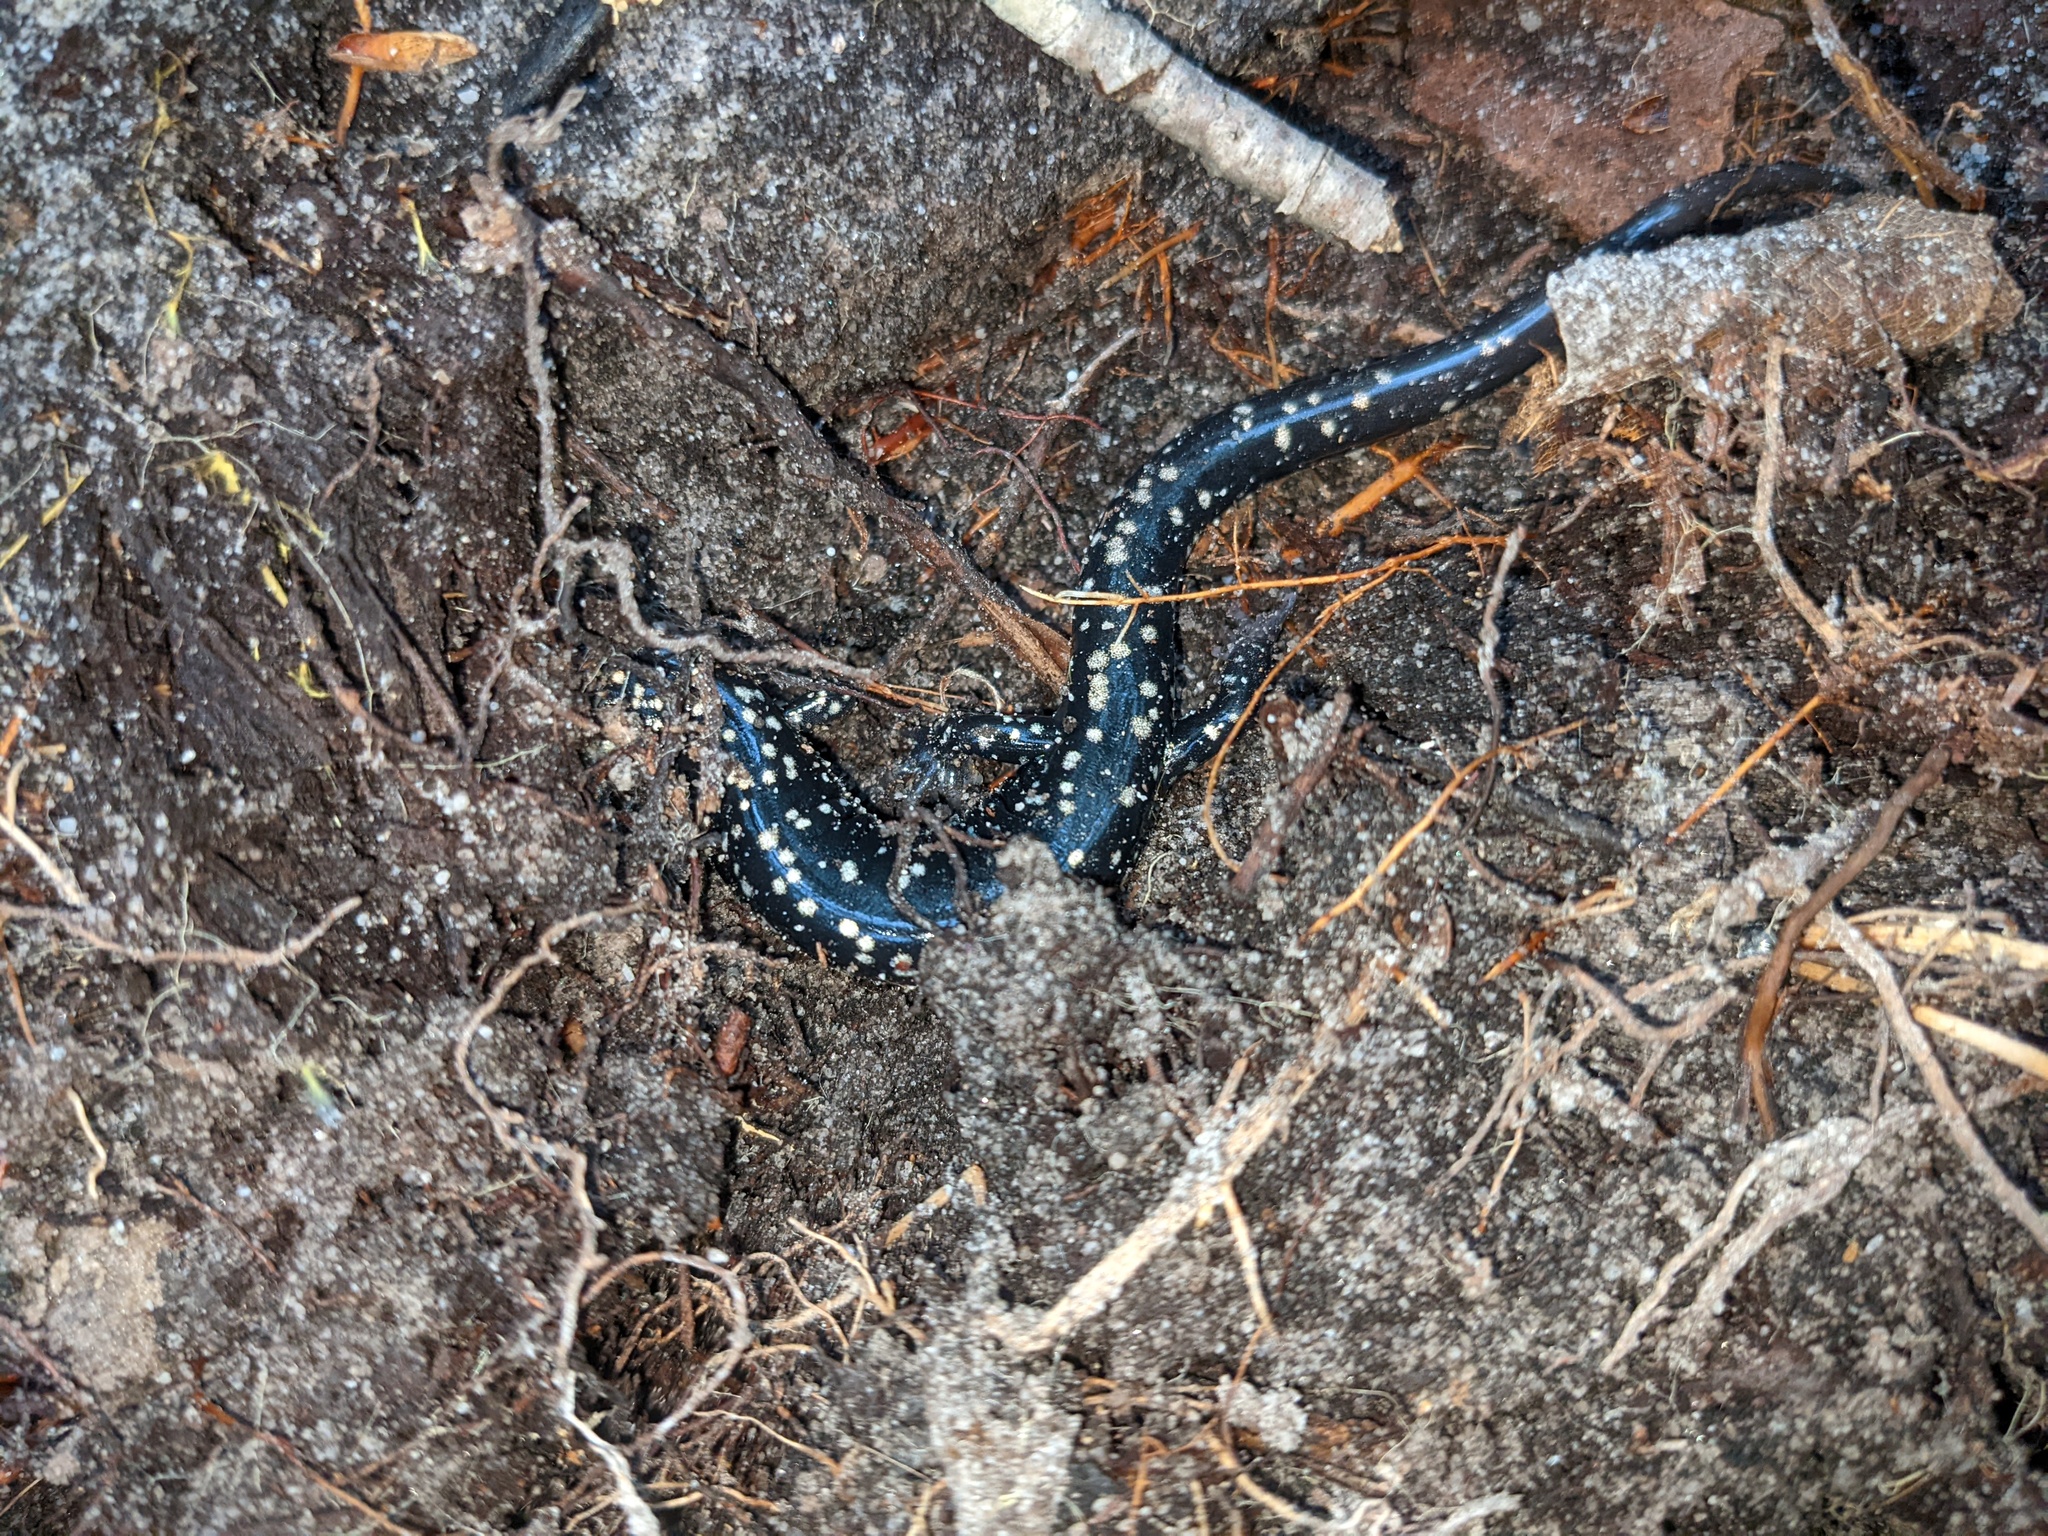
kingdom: Animalia
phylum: Chordata
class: Amphibia
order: Caudata
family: Plethodontidae
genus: Plethodon
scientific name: Plethodon glutinosus
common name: Northern slimy salamander
